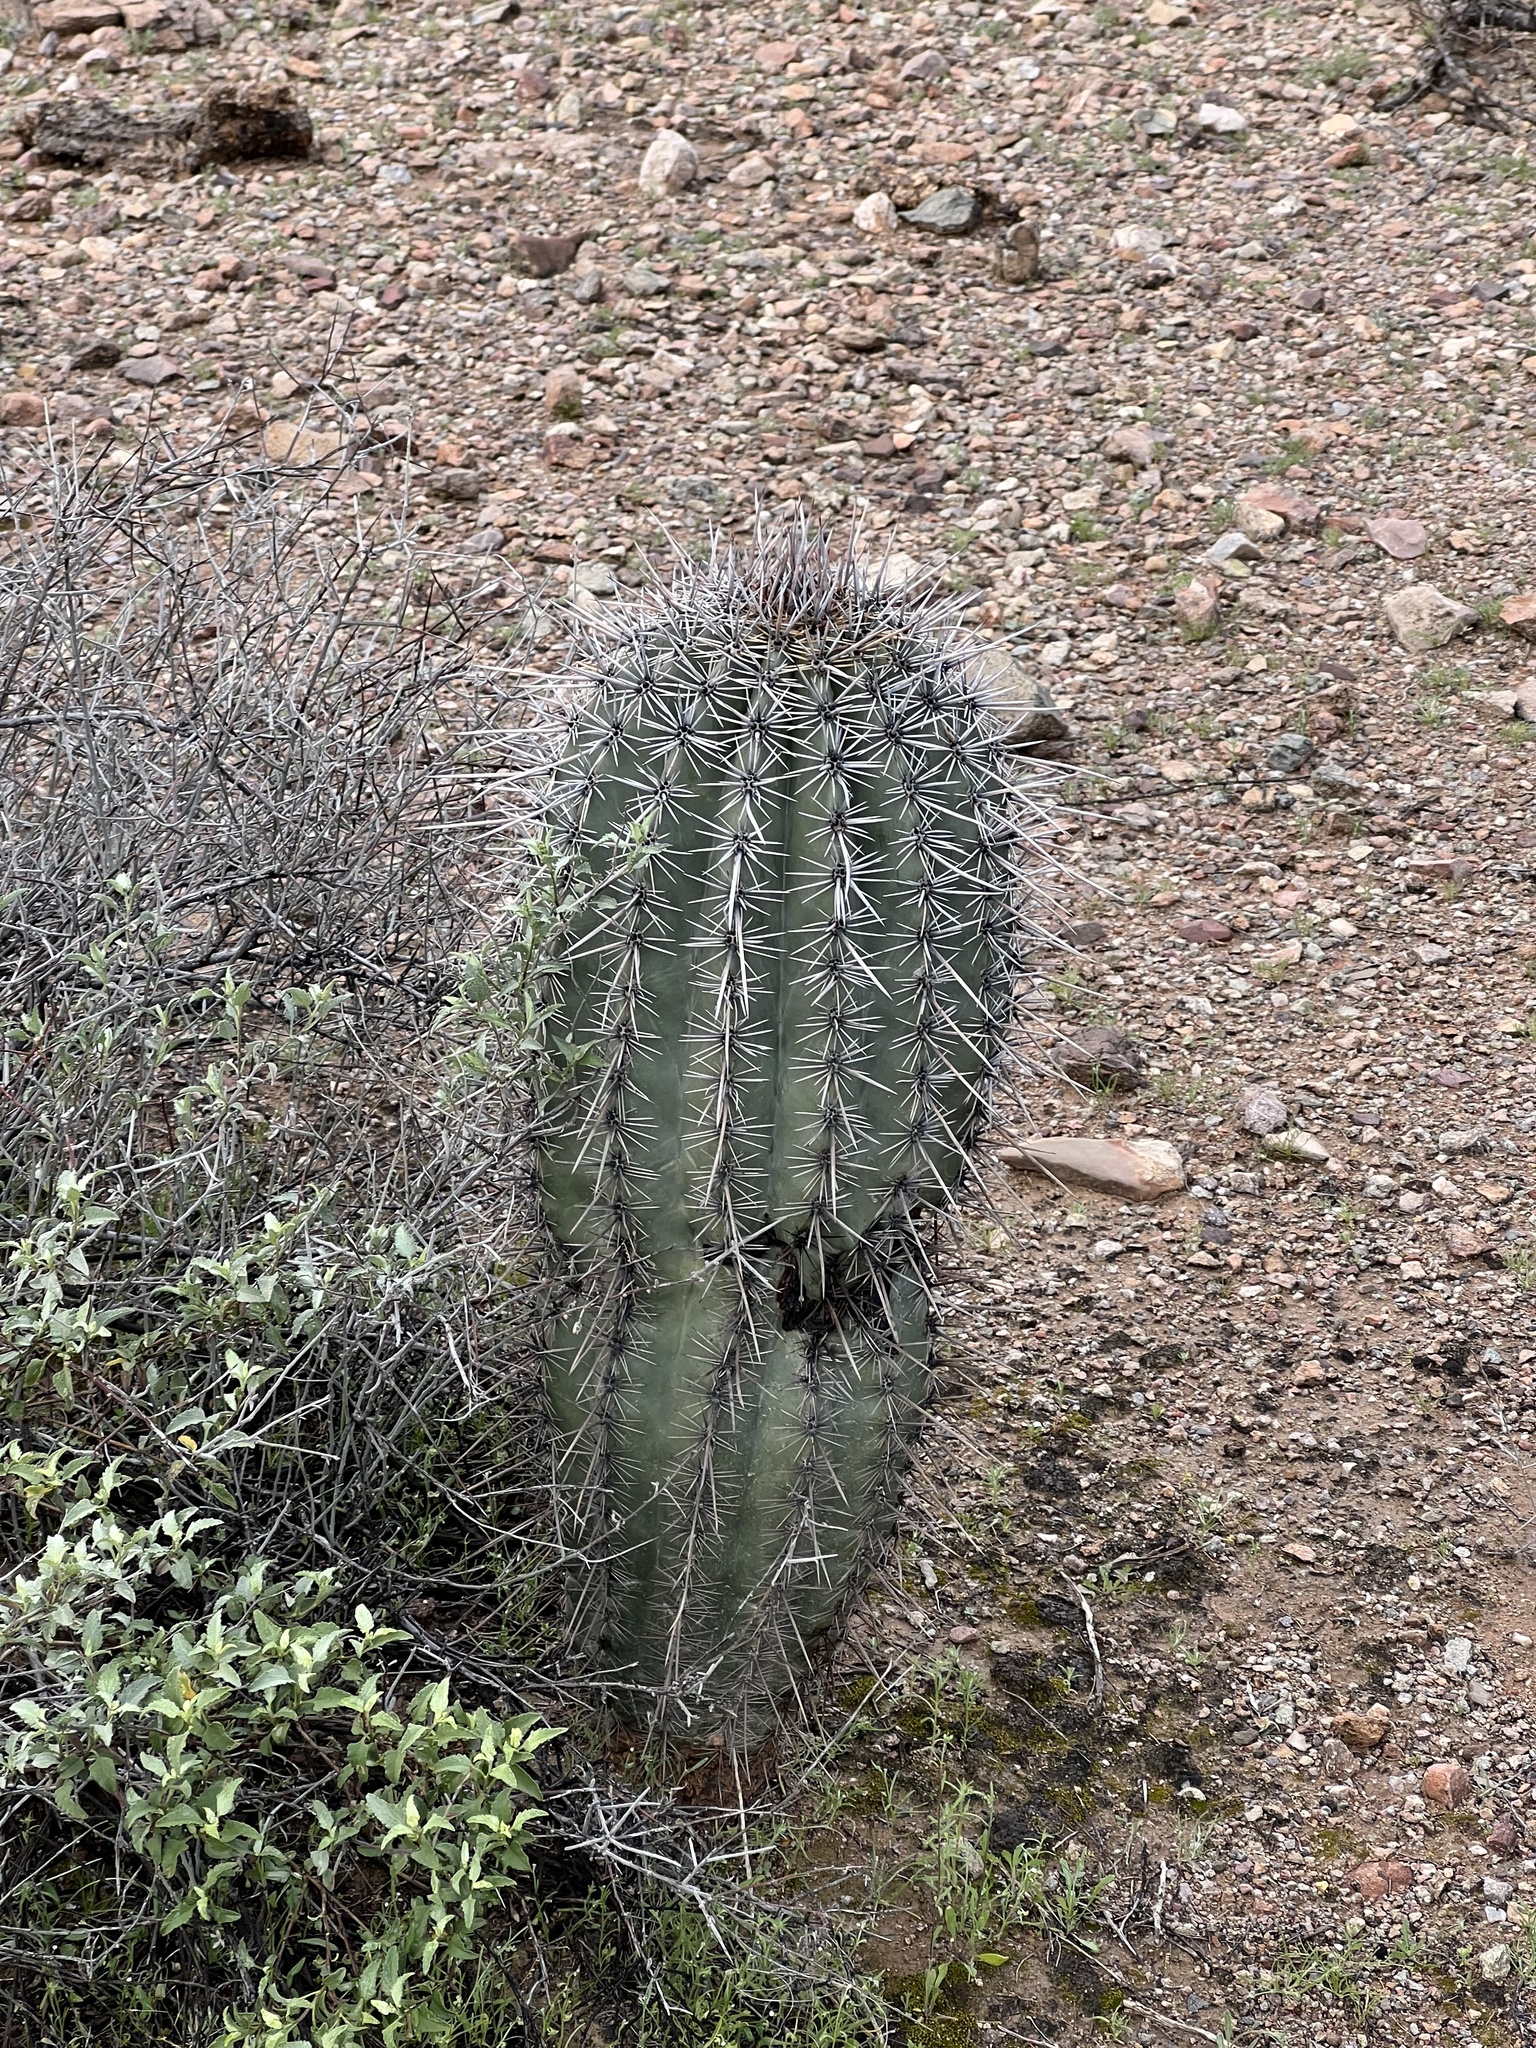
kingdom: Plantae
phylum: Tracheophyta
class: Magnoliopsida
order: Caryophyllales
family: Cactaceae
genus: Carnegiea
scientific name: Carnegiea gigantea
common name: Saguaro
